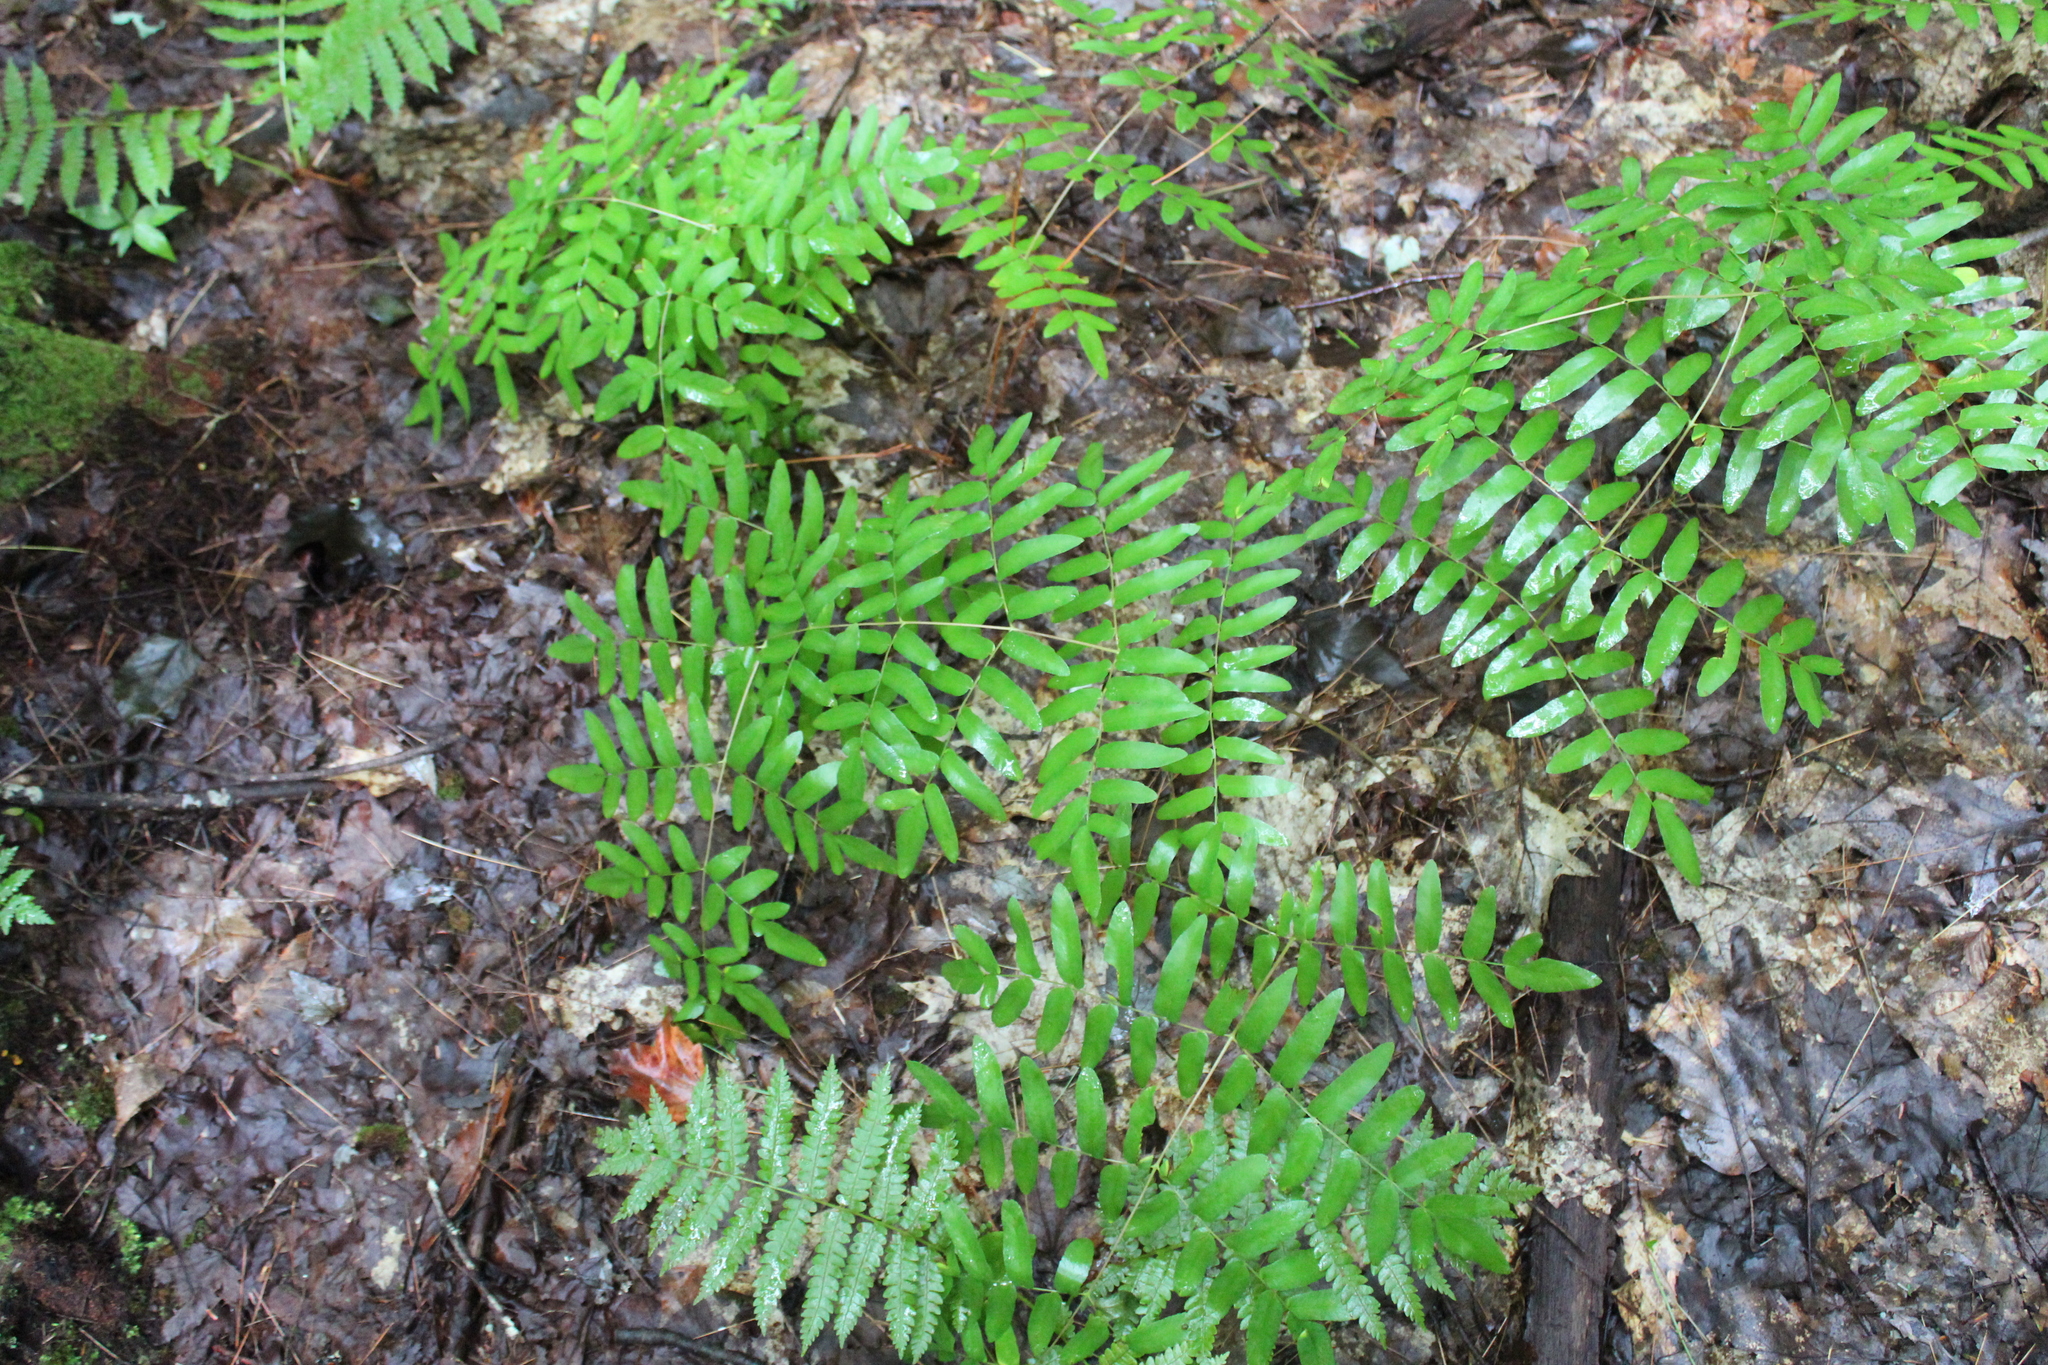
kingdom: Plantae
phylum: Tracheophyta
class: Polypodiopsida
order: Osmundales
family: Osmundaceae
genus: Osmunda
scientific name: Osmunda spectabilis
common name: American royal fern
